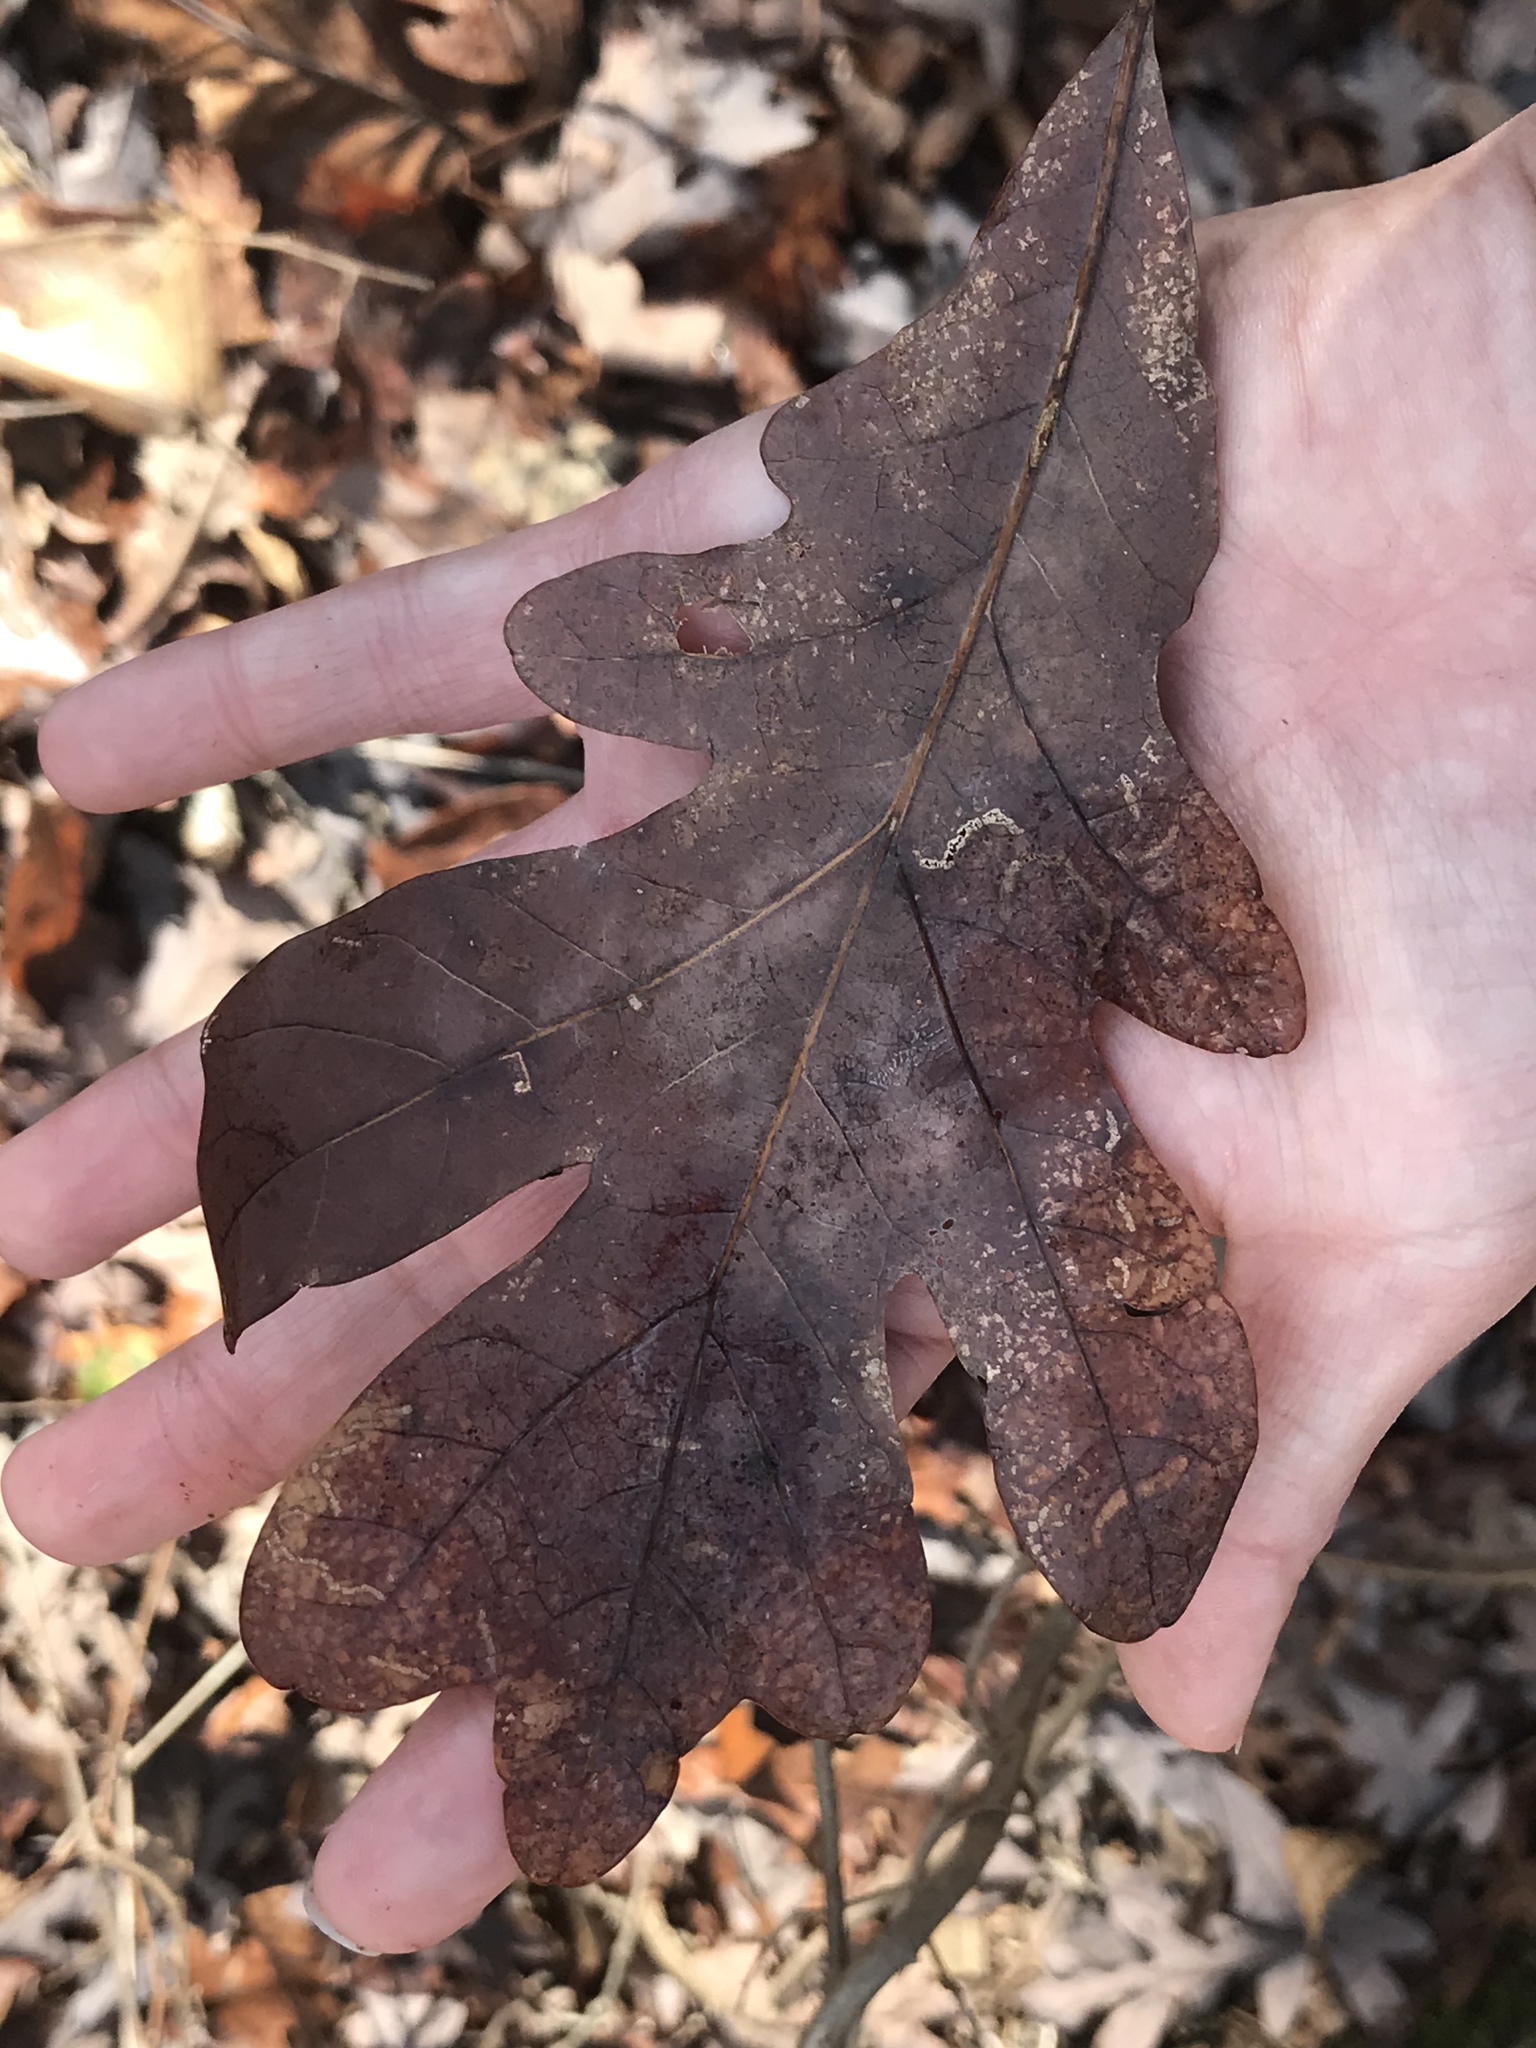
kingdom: Plantae
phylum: Tracheophyta
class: Magnoliopsida
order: Fagales
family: Fagaceae
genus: Quercus
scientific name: Quercus alba
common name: White oak
